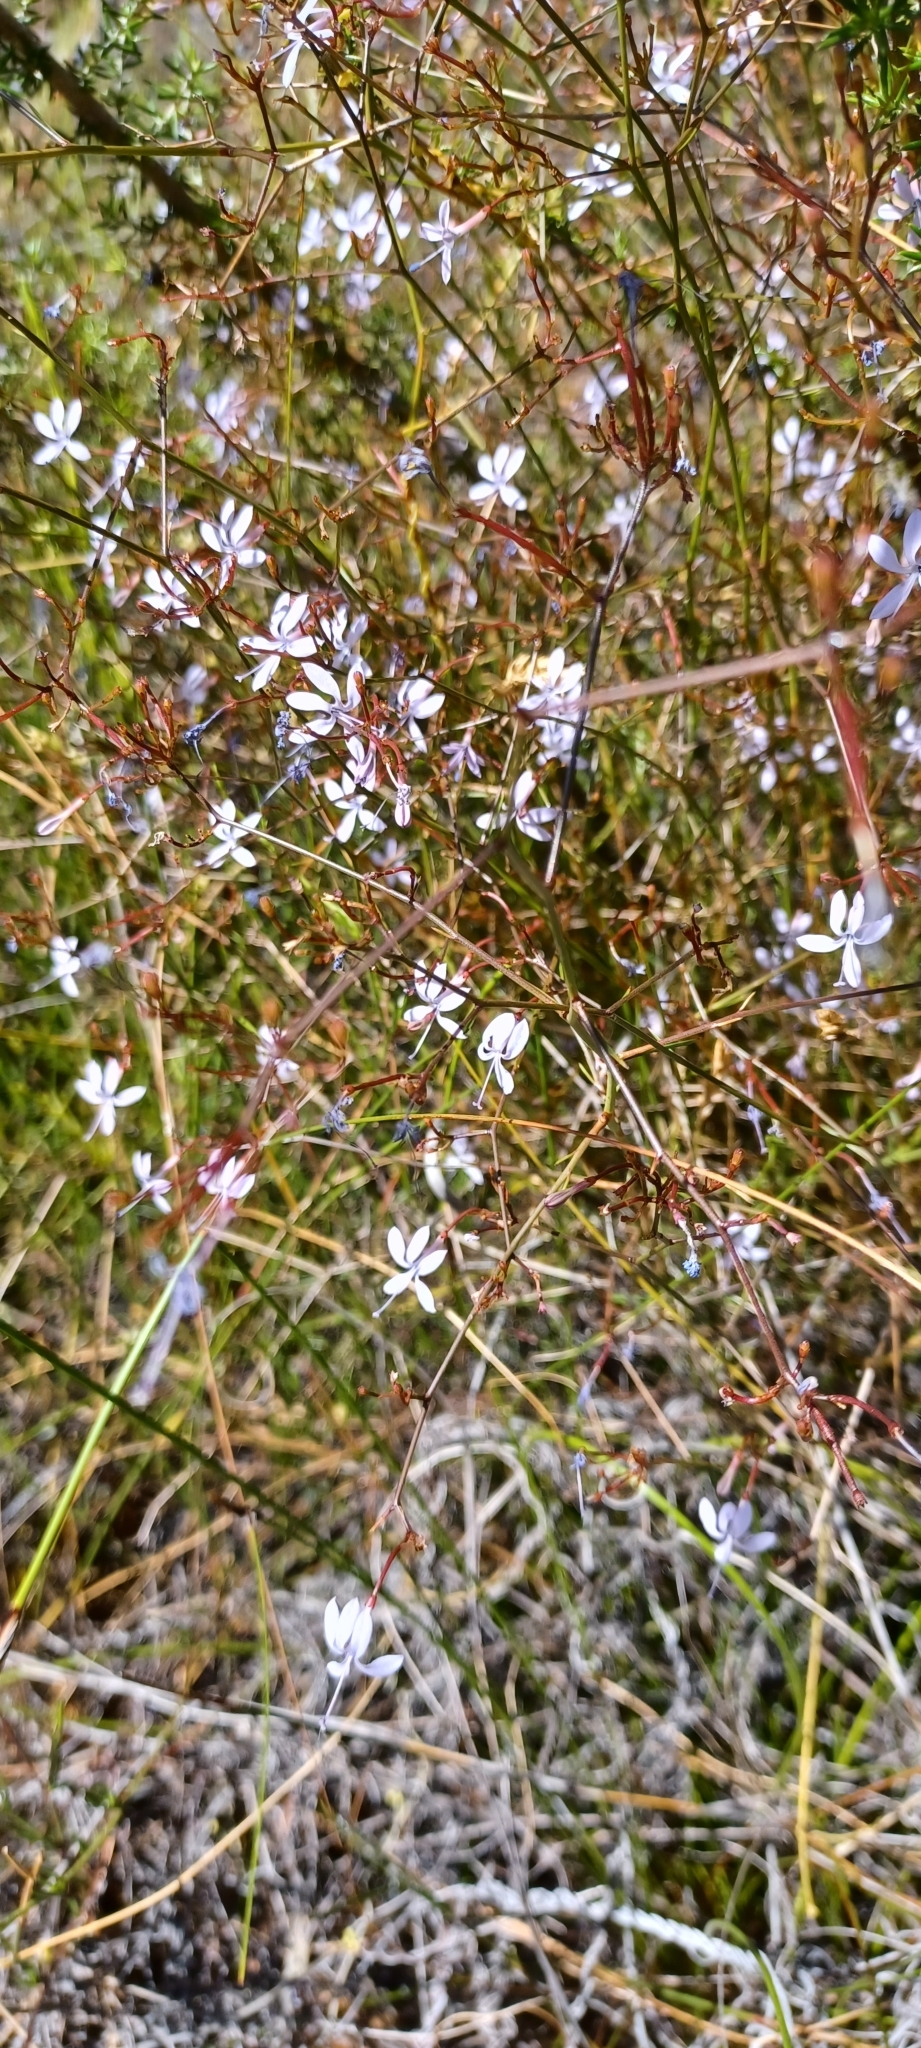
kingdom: Plantae
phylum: Tracheophyta
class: Magnoliopsida
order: Asterales
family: Campanulaceae
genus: Prismatocarpus
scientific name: Prismatocarpus diffusus
